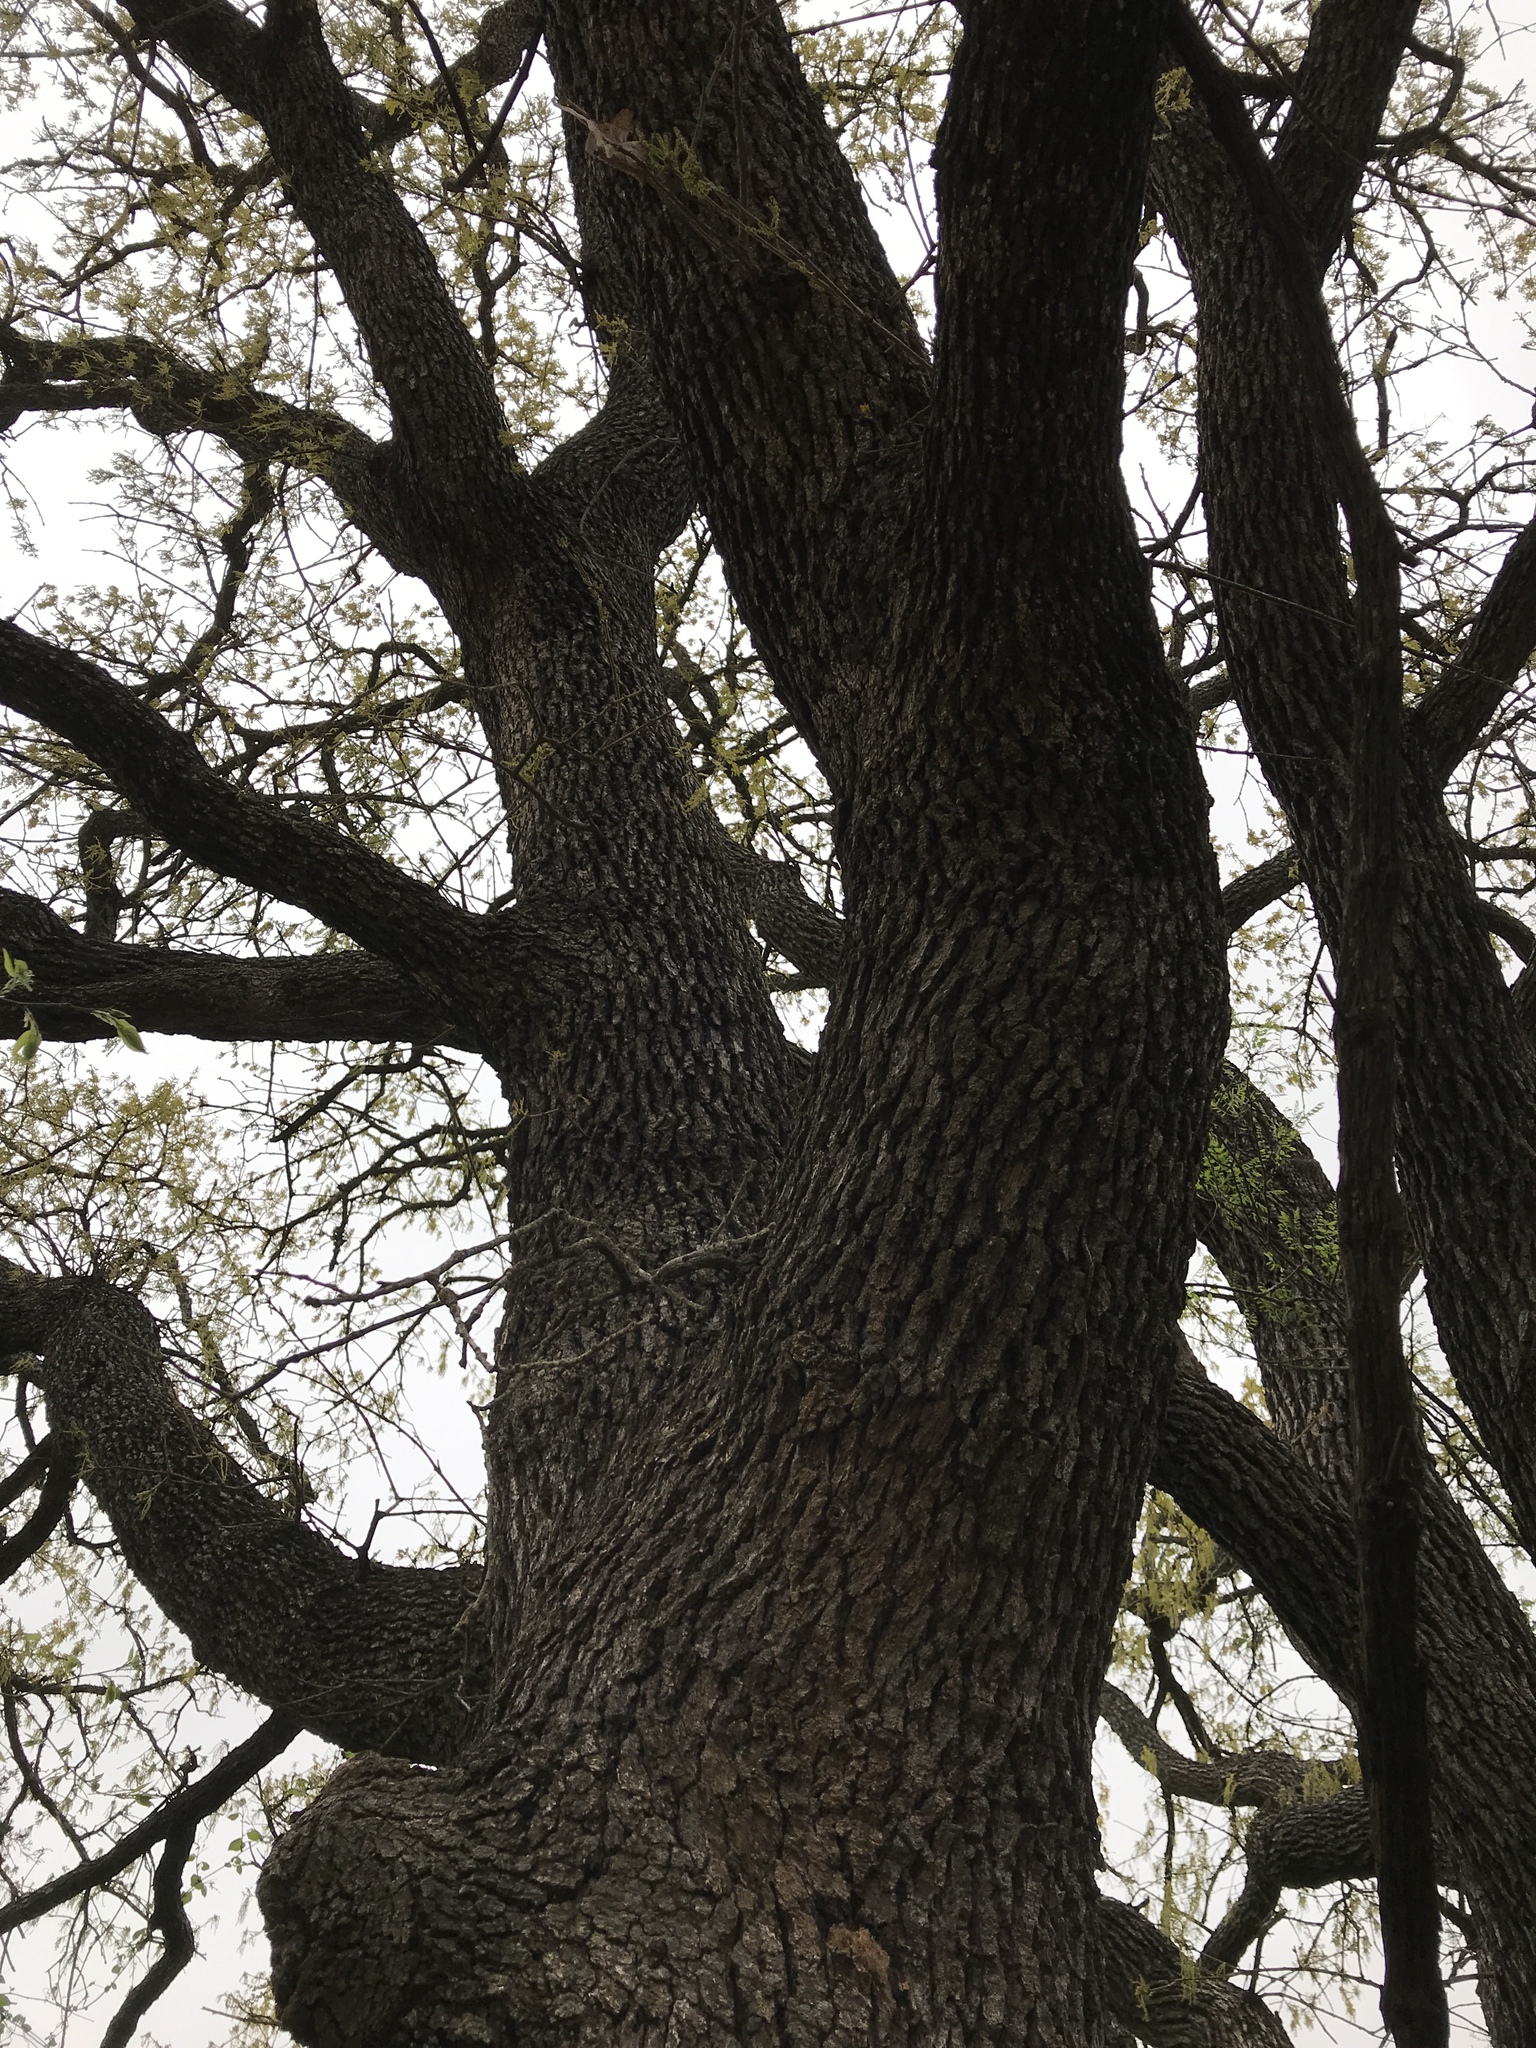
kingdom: Plantae
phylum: Tracheophyta
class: Magnoliopsida
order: Fagales
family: Fagaceae
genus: Quercus
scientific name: Quercus stellata
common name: Post oak
